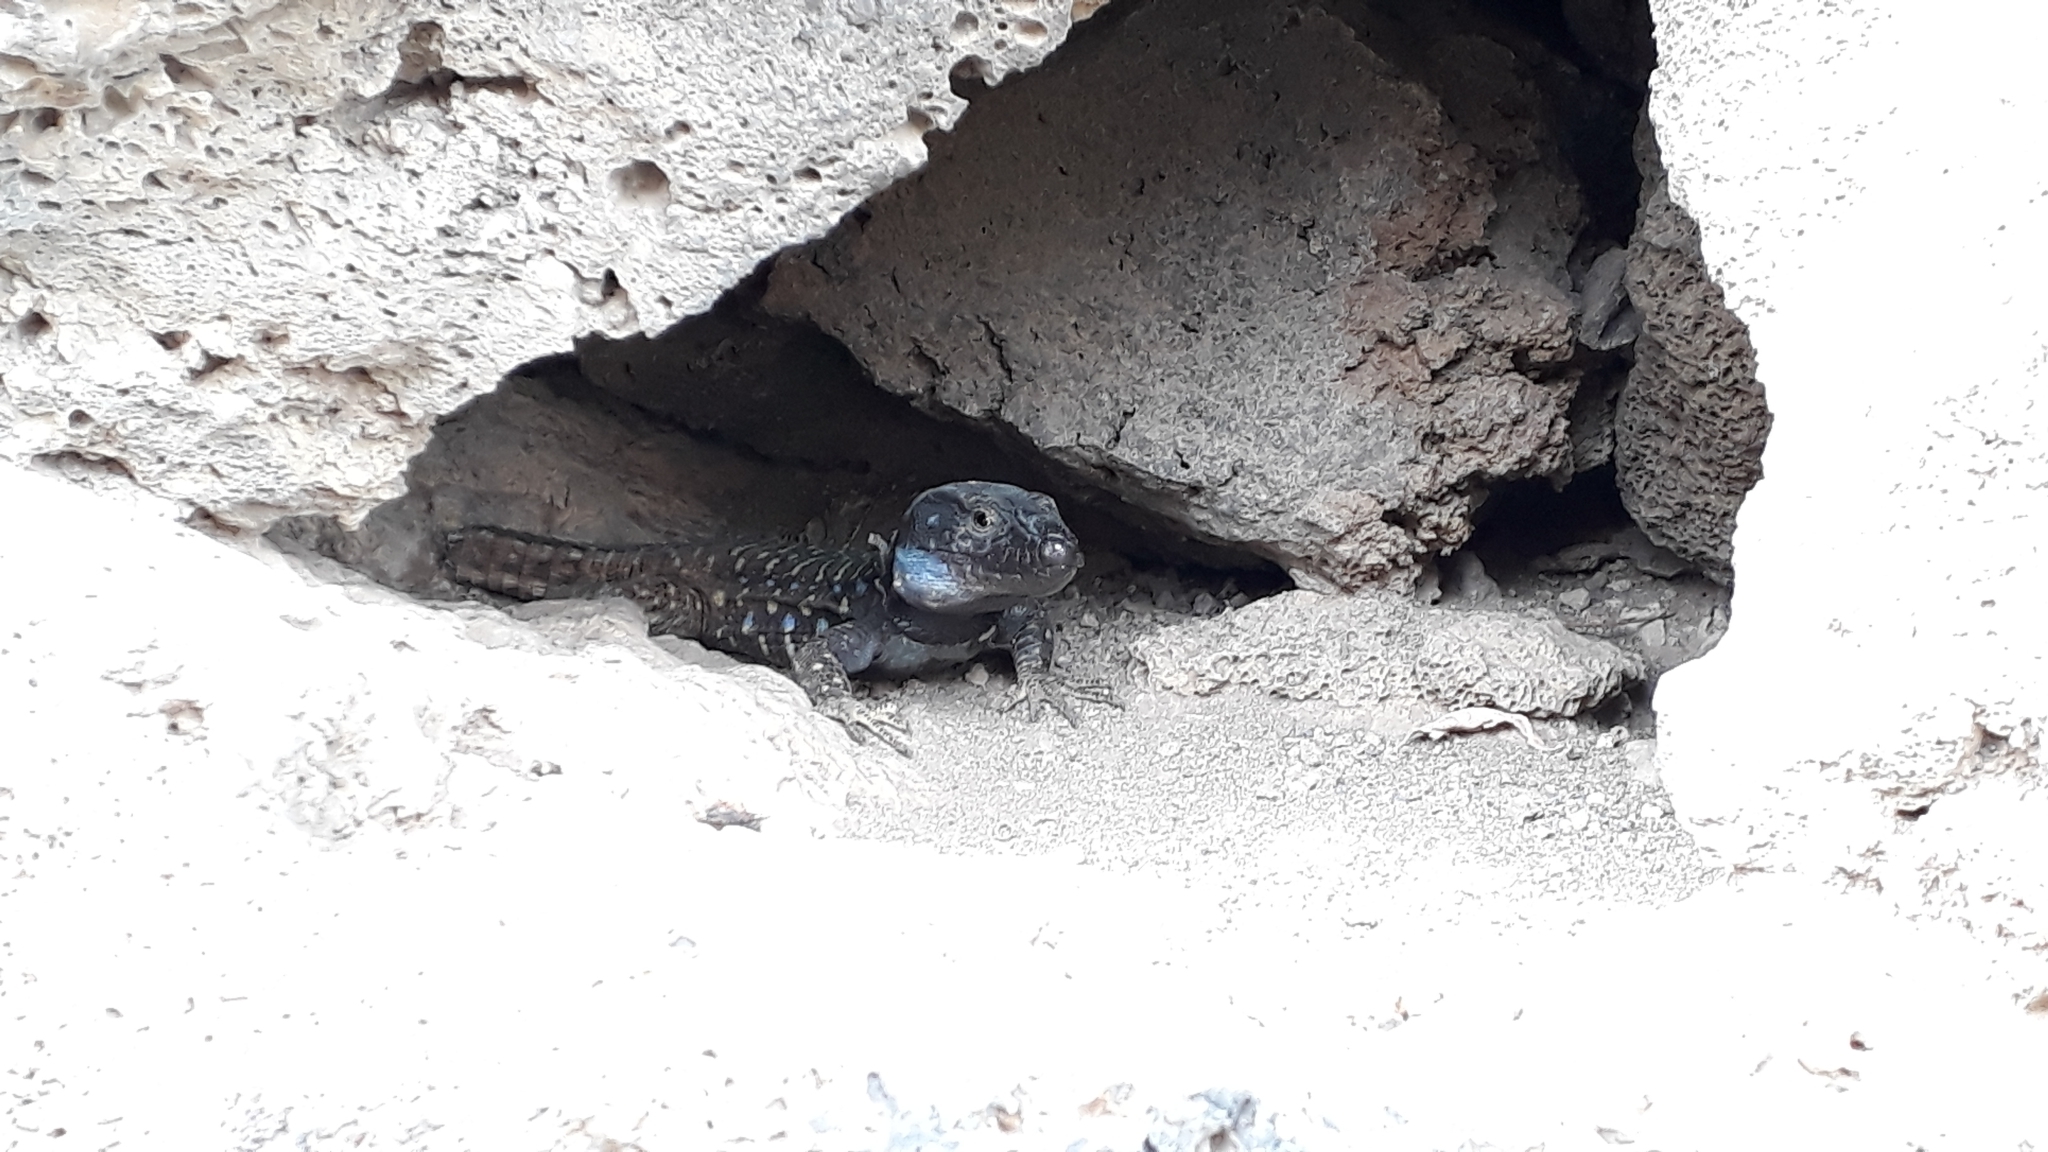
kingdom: Animalia
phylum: Chordata
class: Squamata
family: Lacertidae
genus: Gallotia
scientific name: Gallotia galloti
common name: Gallot's lizard
